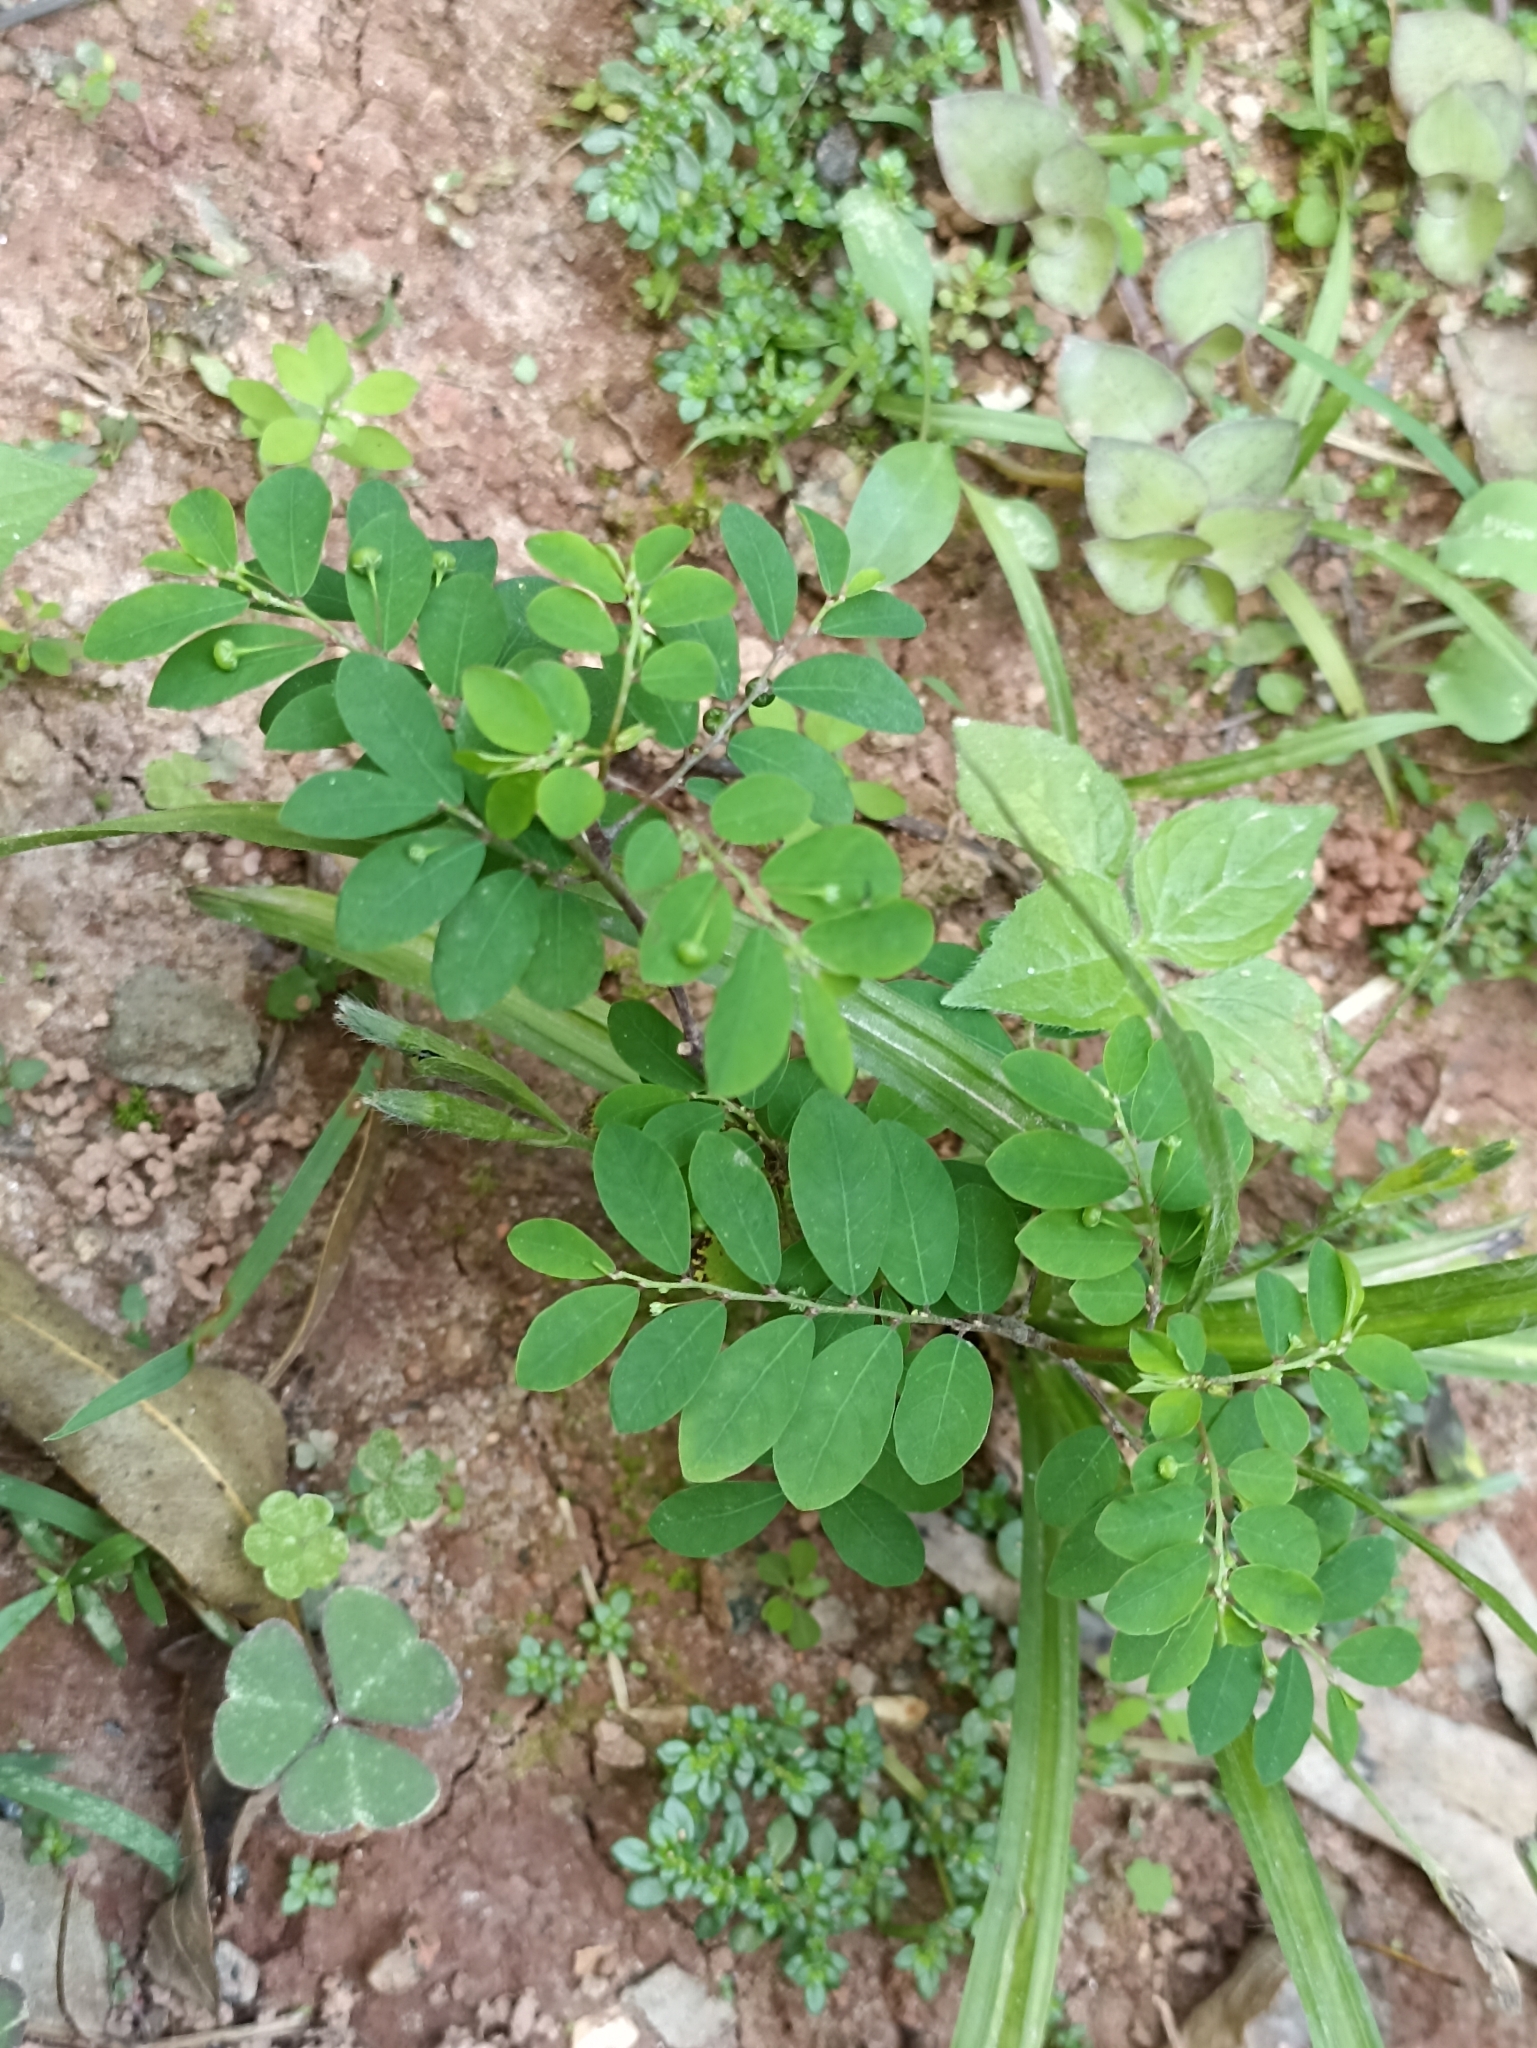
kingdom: Plantae
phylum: Tracheophyta
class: Magnoliopsida
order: Malpighiales
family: Phyllanthaceae
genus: Phyllanthus
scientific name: Phyllanthus tenellus
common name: Mascarene island leaf-flower
